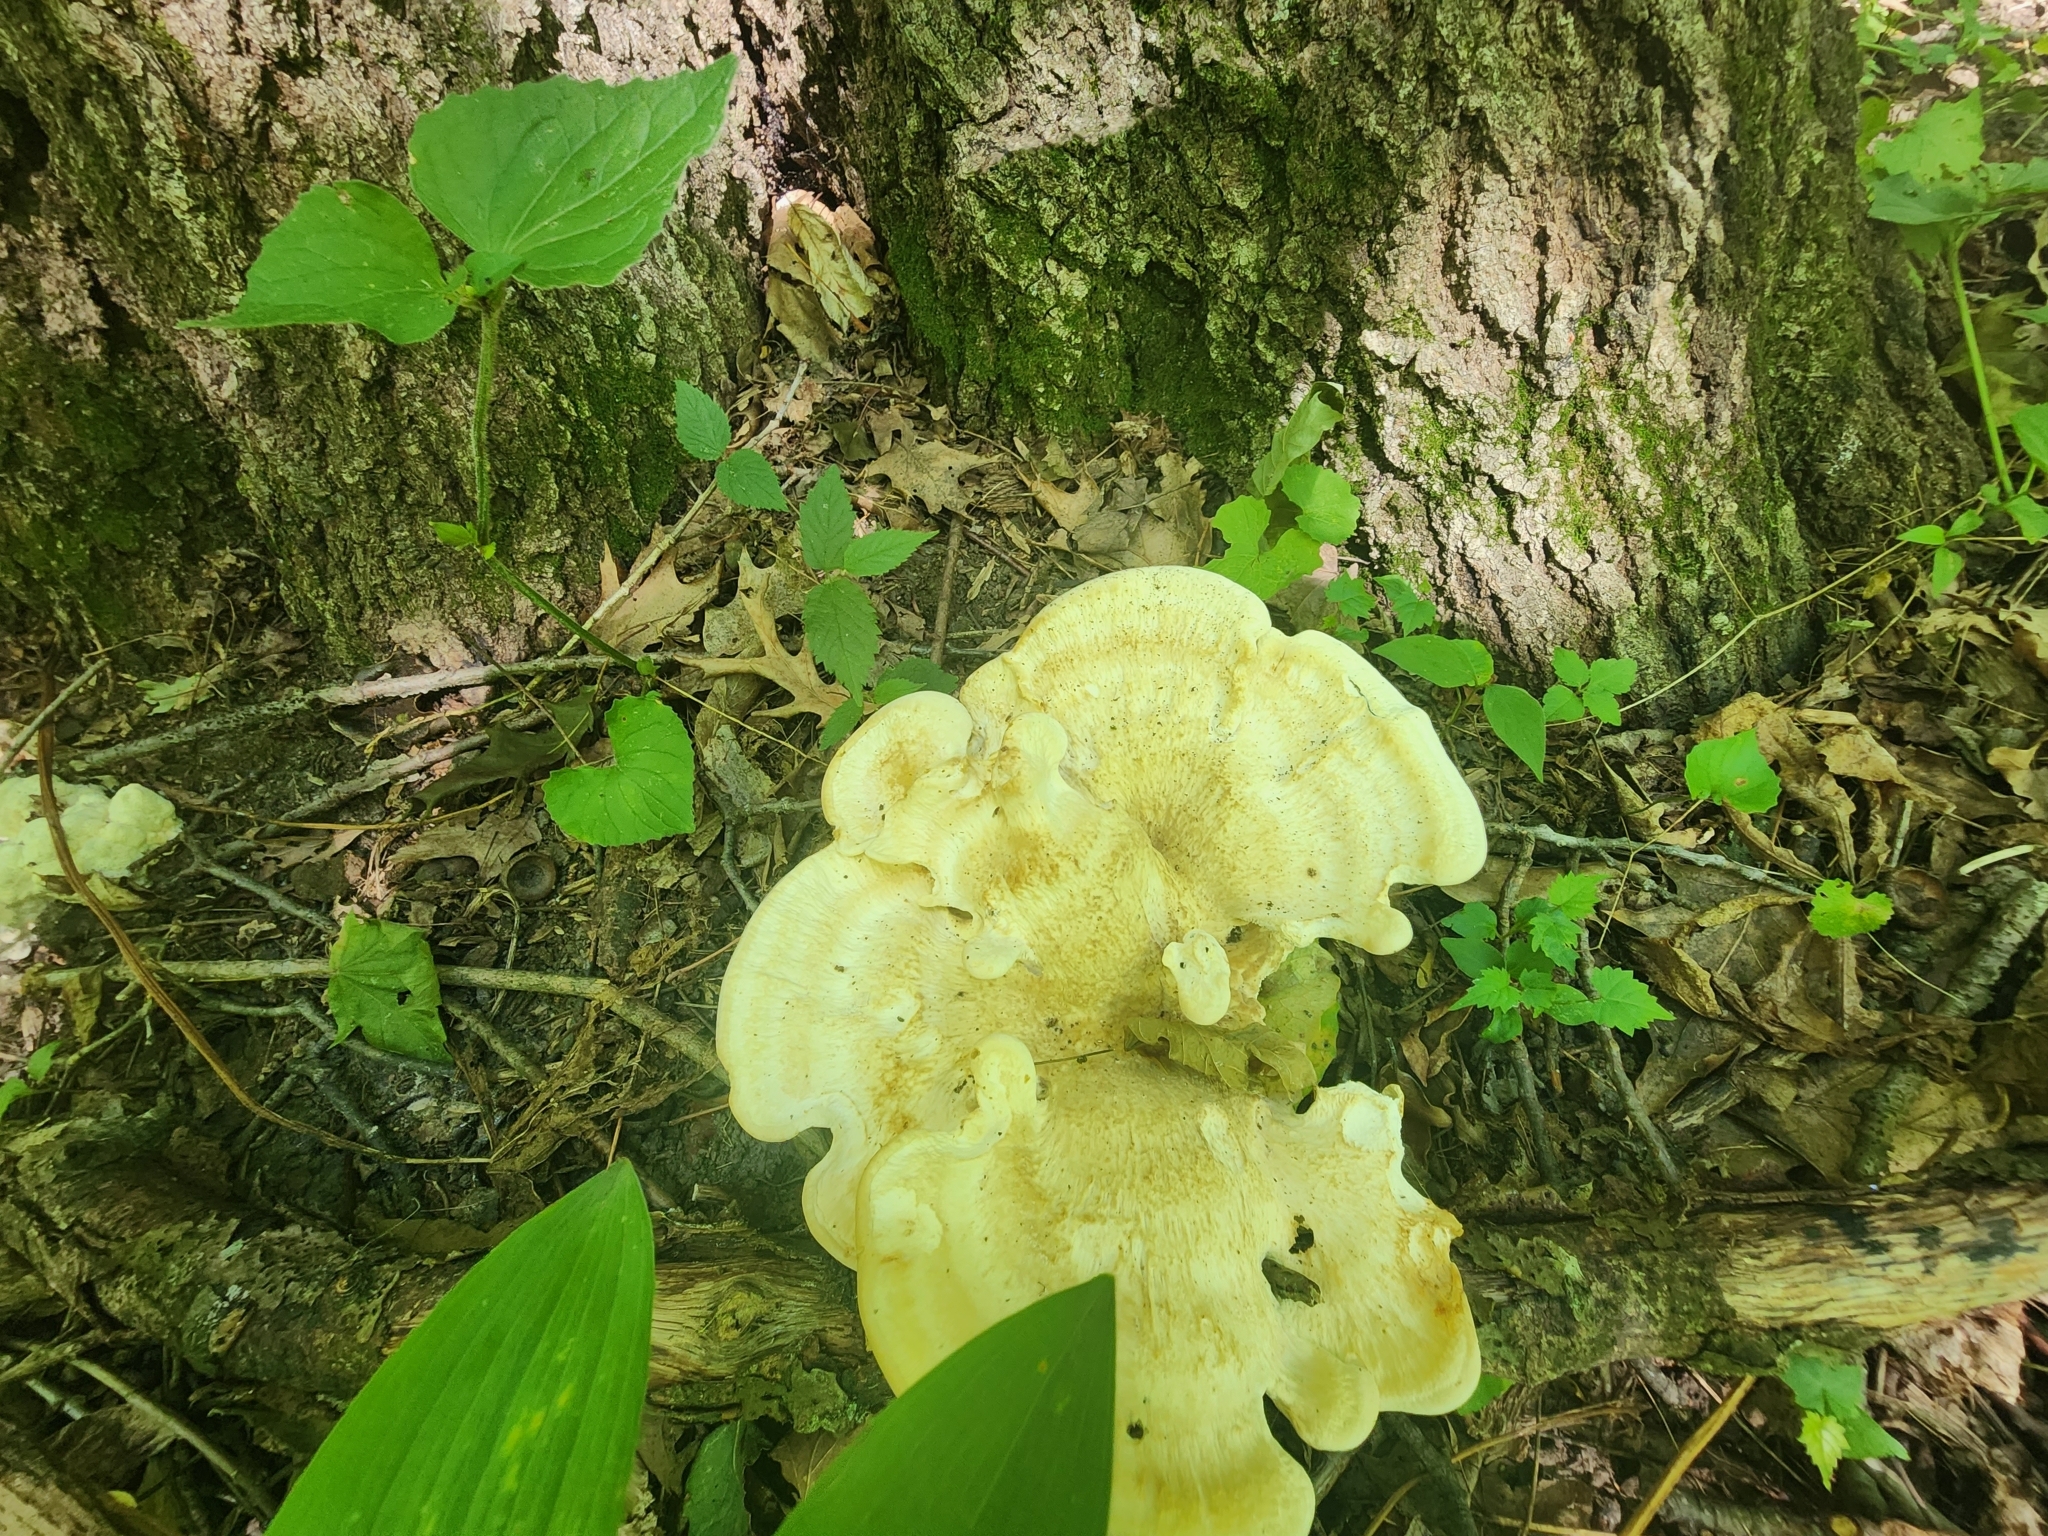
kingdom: Fungi
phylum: Basidiomycota
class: Agaricomycetes
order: Russulales
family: Bondarzewiaceae
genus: Bondarzewia
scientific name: Bondarzewia berkeleyi
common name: Berkeley's polypore
